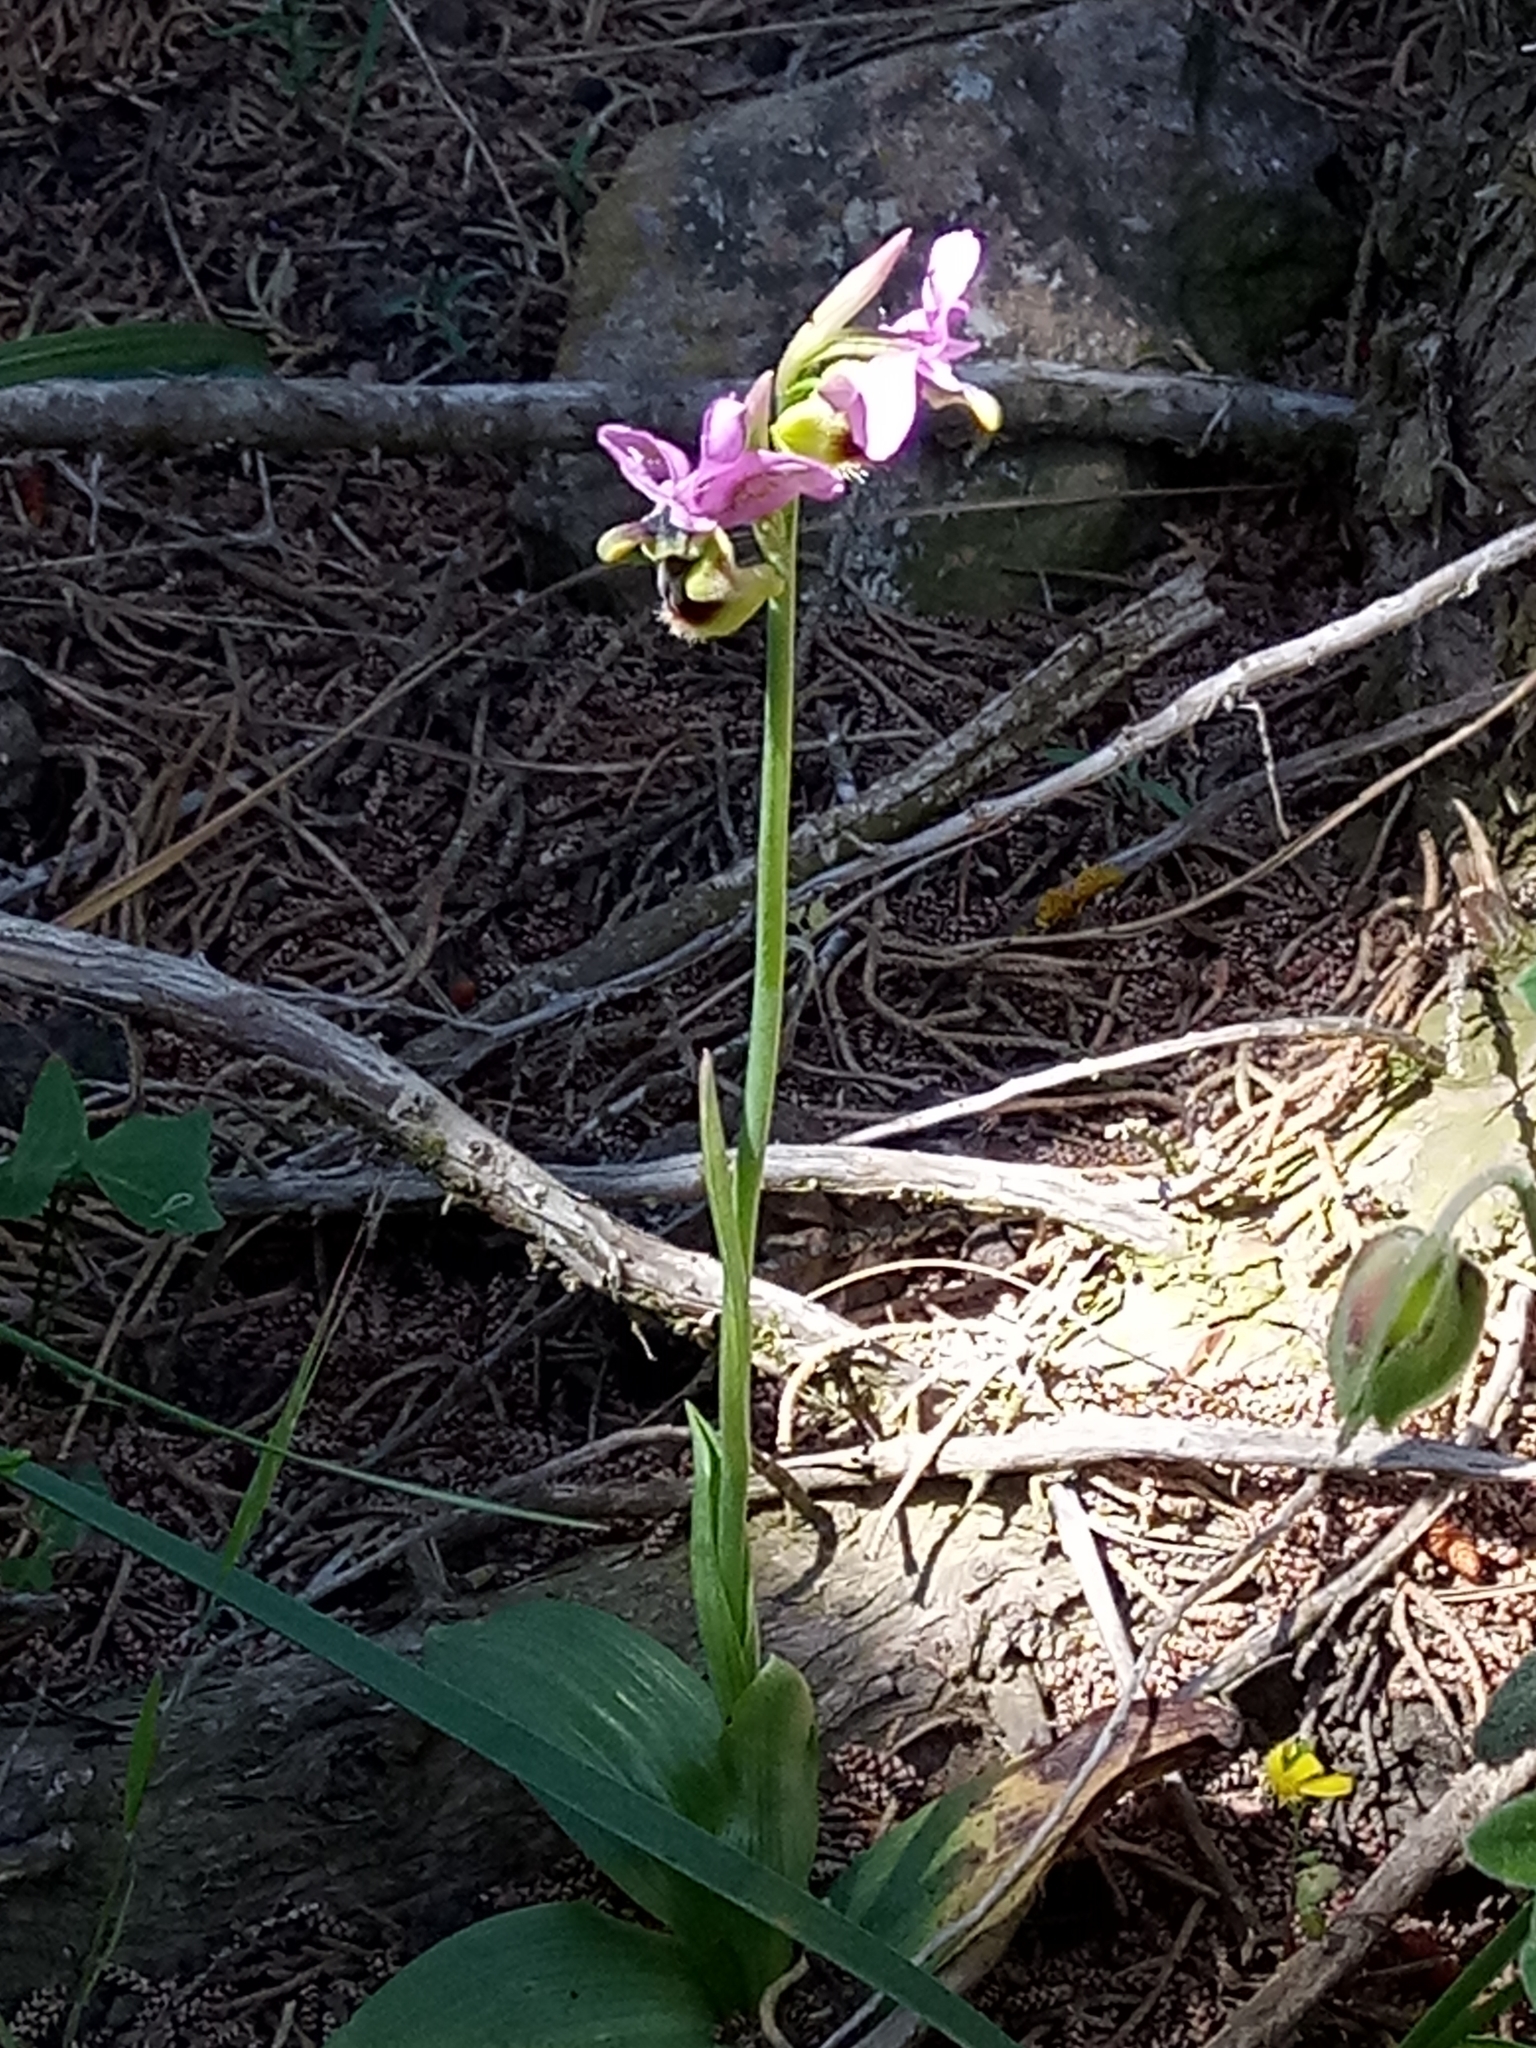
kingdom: Plantae
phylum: Tracheophyta
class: Liliopsida
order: Asparagales
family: Orchidaceae
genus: Ophrys
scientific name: Ophrys tenthredinifera
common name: Sawfly orchid
